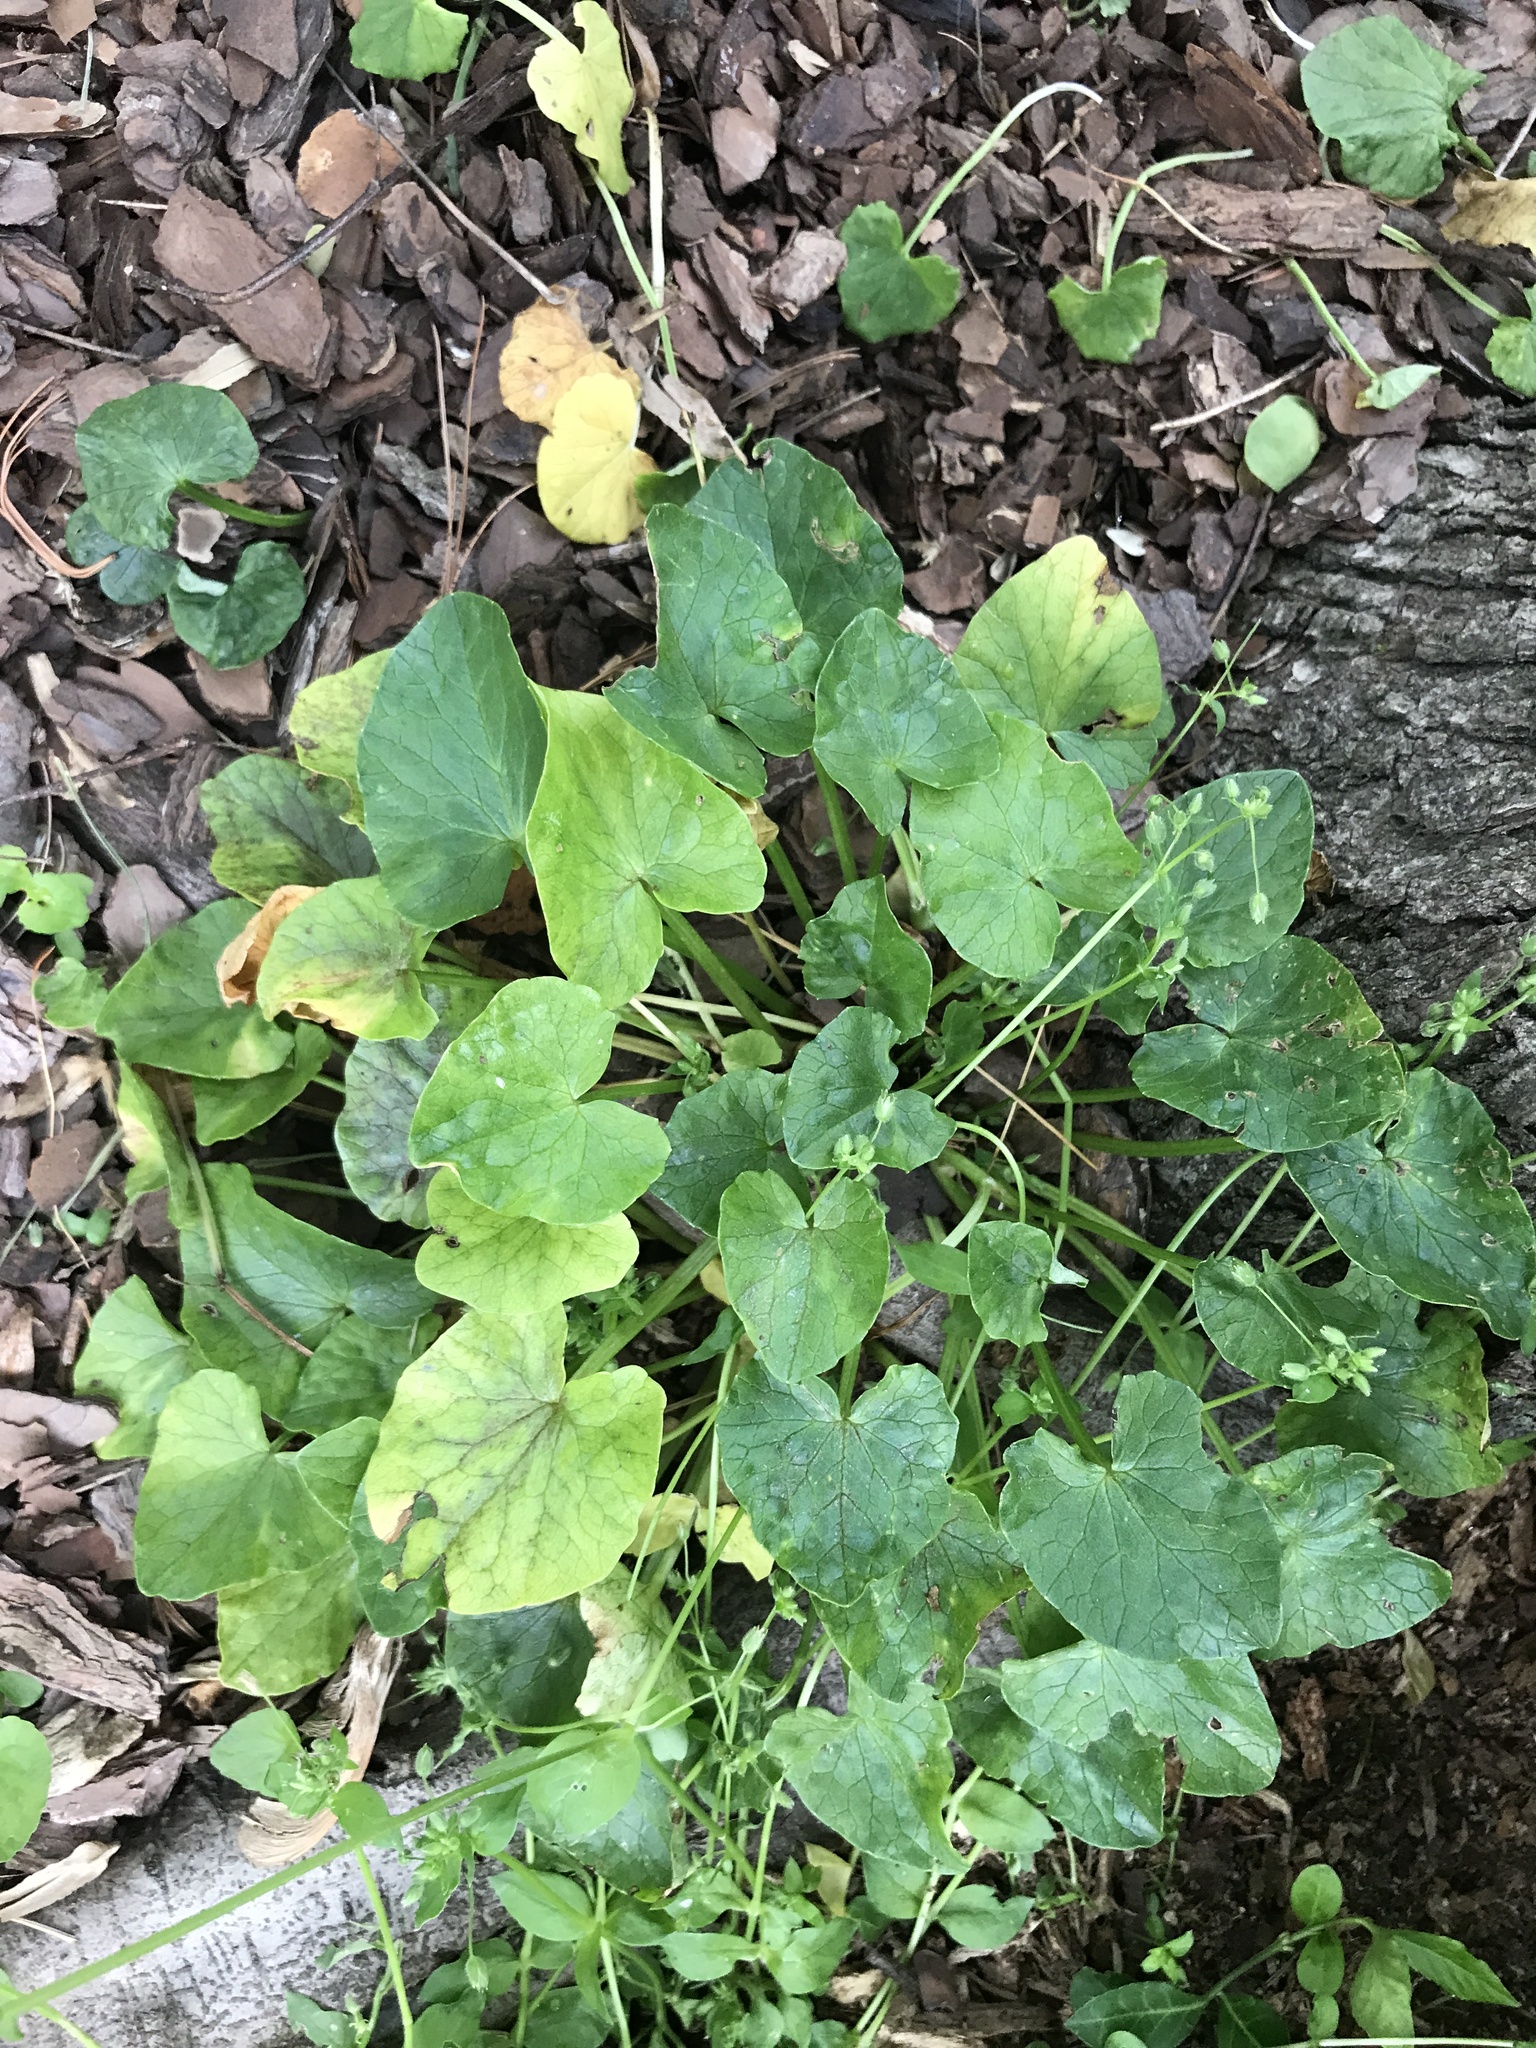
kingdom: Plantae
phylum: Tracheophyta
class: Magnoliopsida
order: Ranunculales
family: Ranunculaceae
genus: Ficaria
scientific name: Ficaria verna
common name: Lesser celandine
